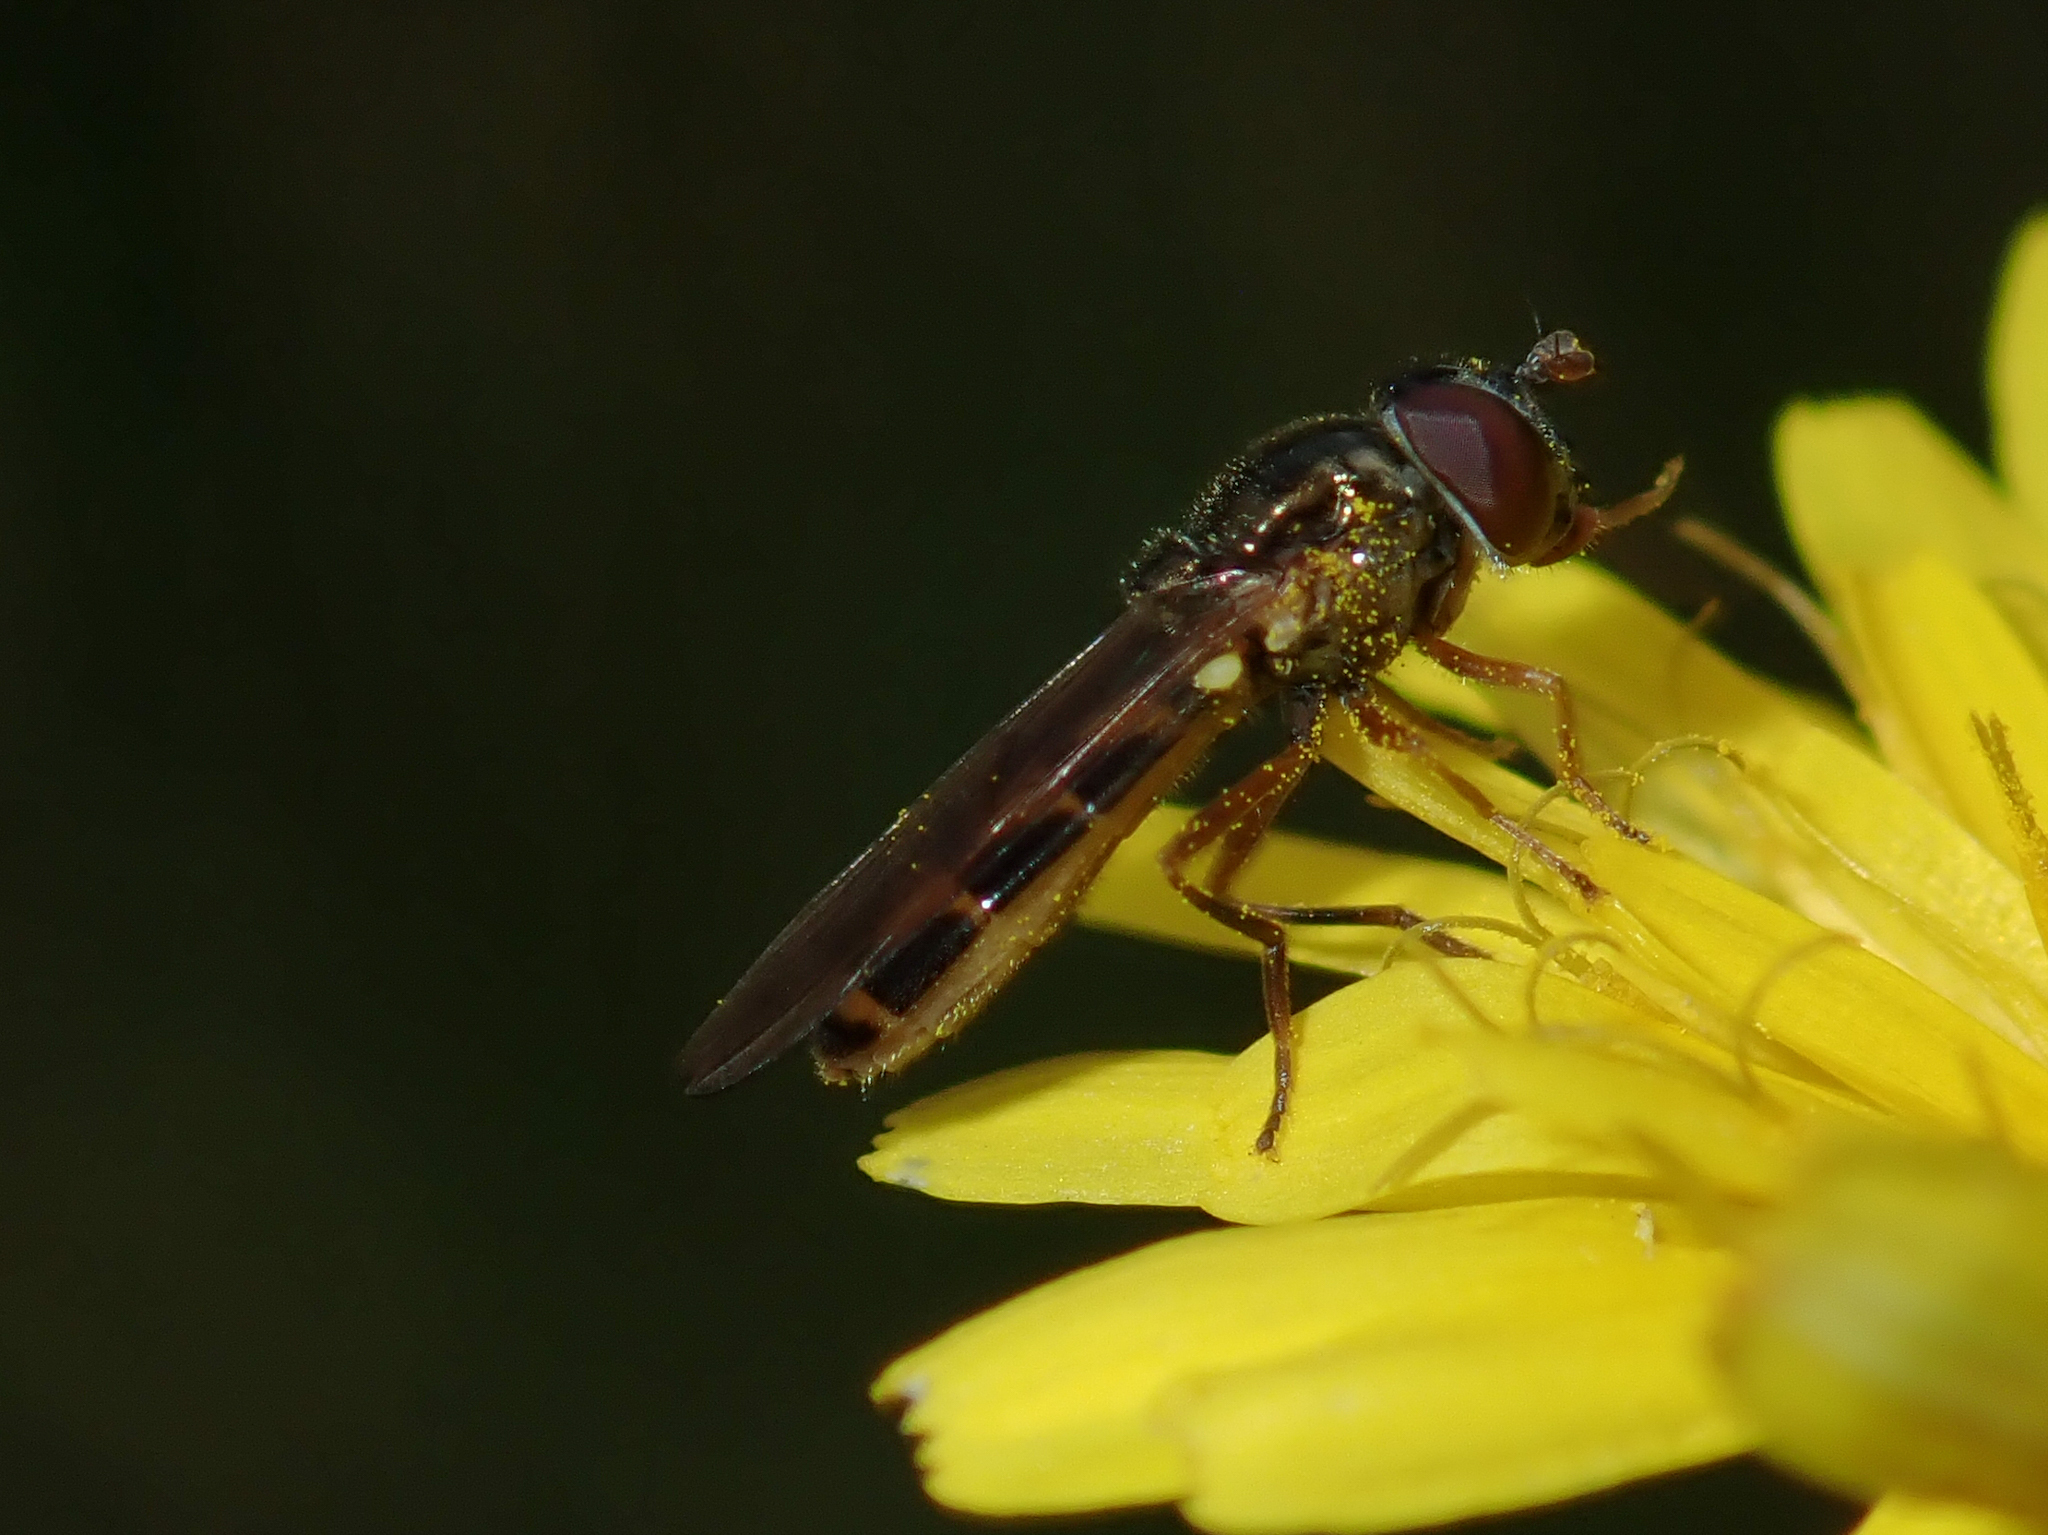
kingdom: Animalia
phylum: Arthropoda
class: Insecta
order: Diptera
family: Syrphidae
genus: Melanostoma
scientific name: Melanostoma fasciatum
